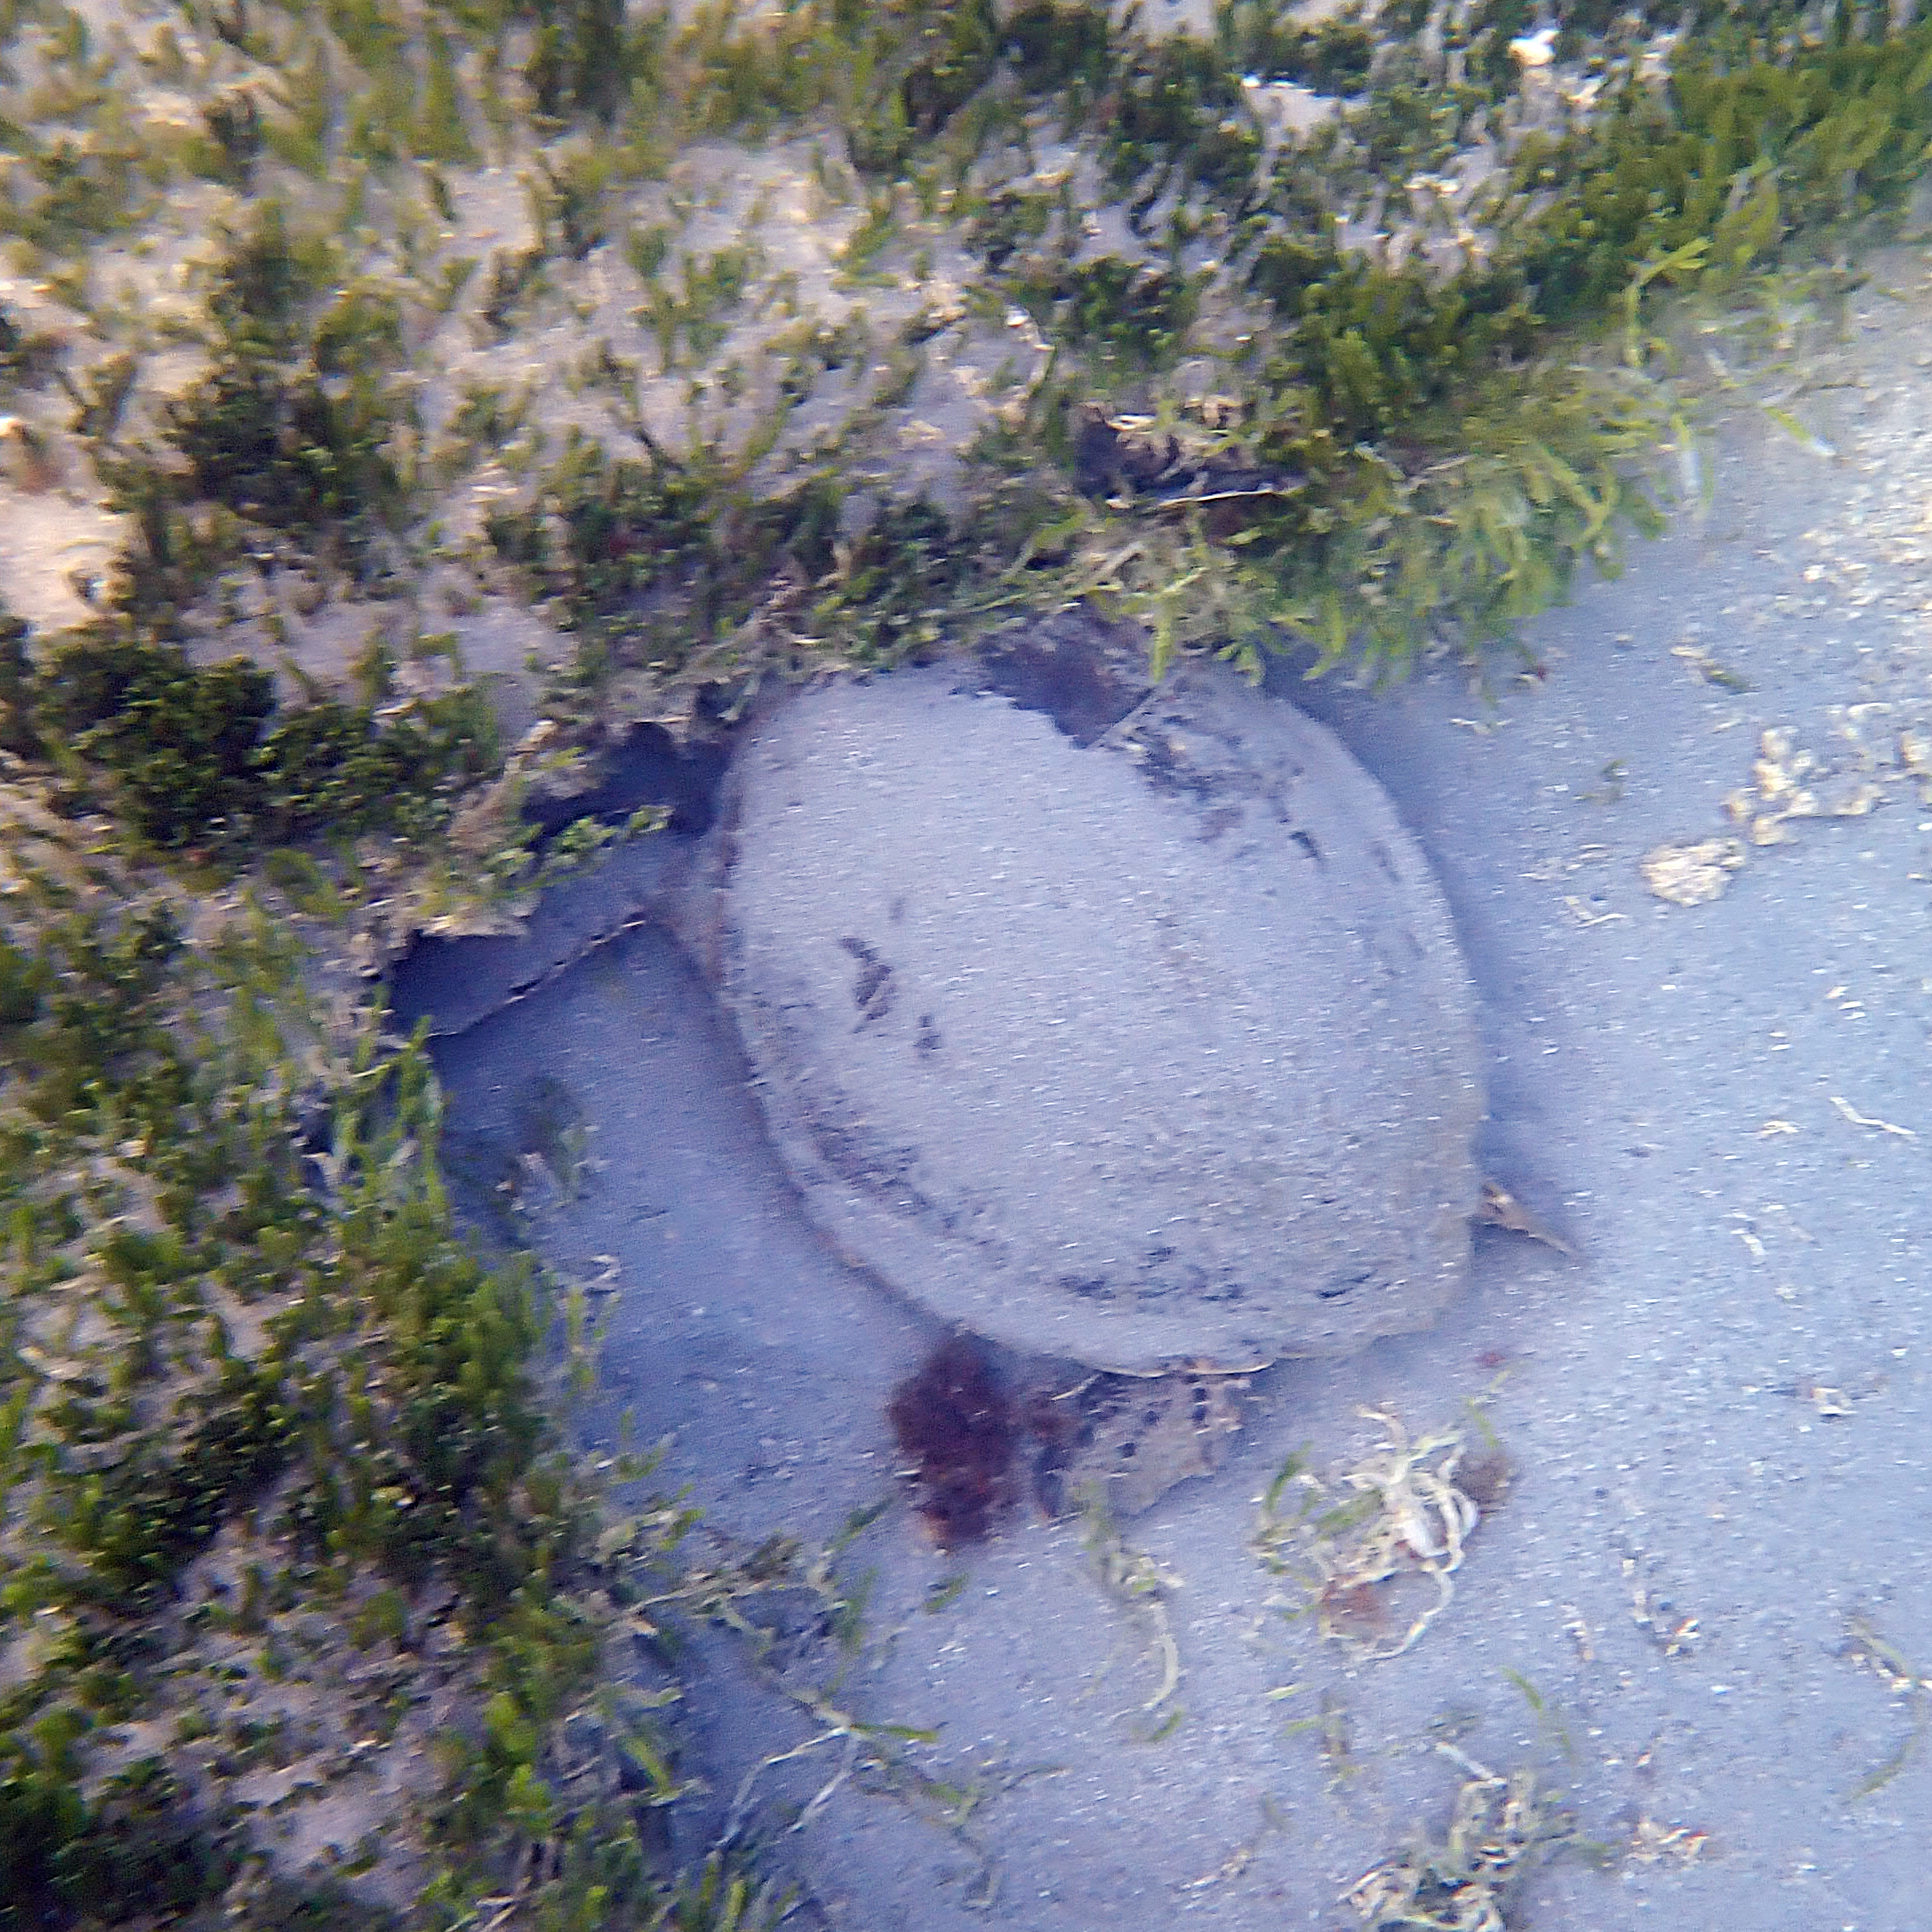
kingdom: Animalia
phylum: Chordata
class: Testudines
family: Cheloniidae
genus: Chelonia
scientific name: Chelonia mydas
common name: Green turtle
